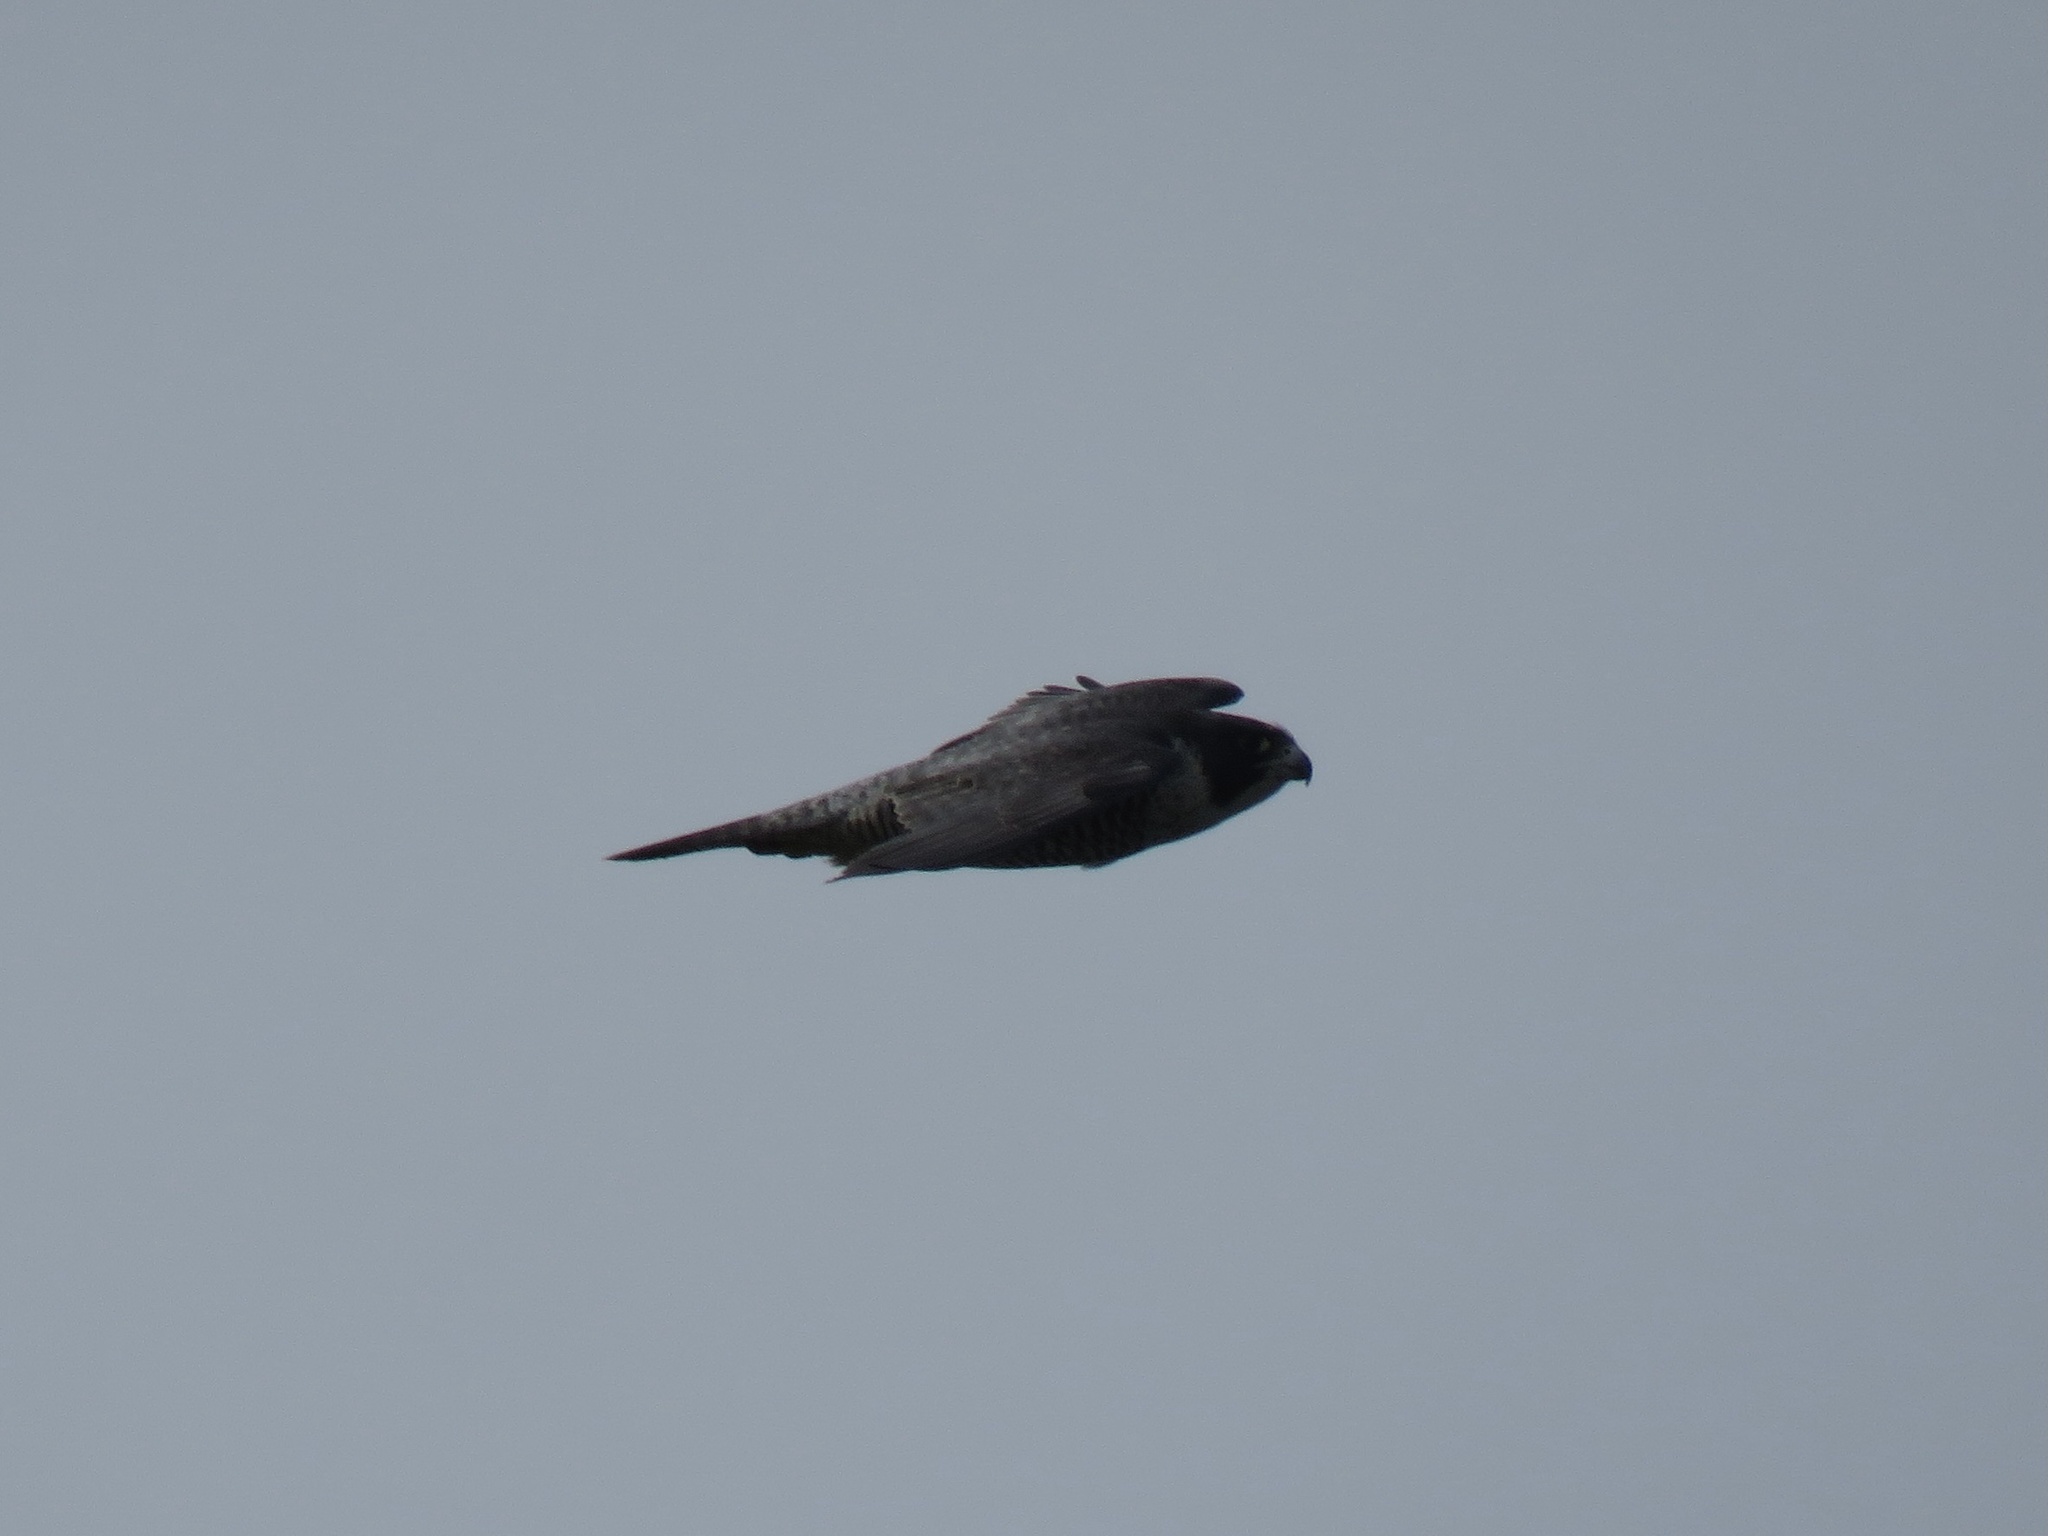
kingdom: Animalia
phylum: Chordata
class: Aves
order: Falconiformes
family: Falconidae
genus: Falco
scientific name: Falco peregrinus
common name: Peregrine falcon
